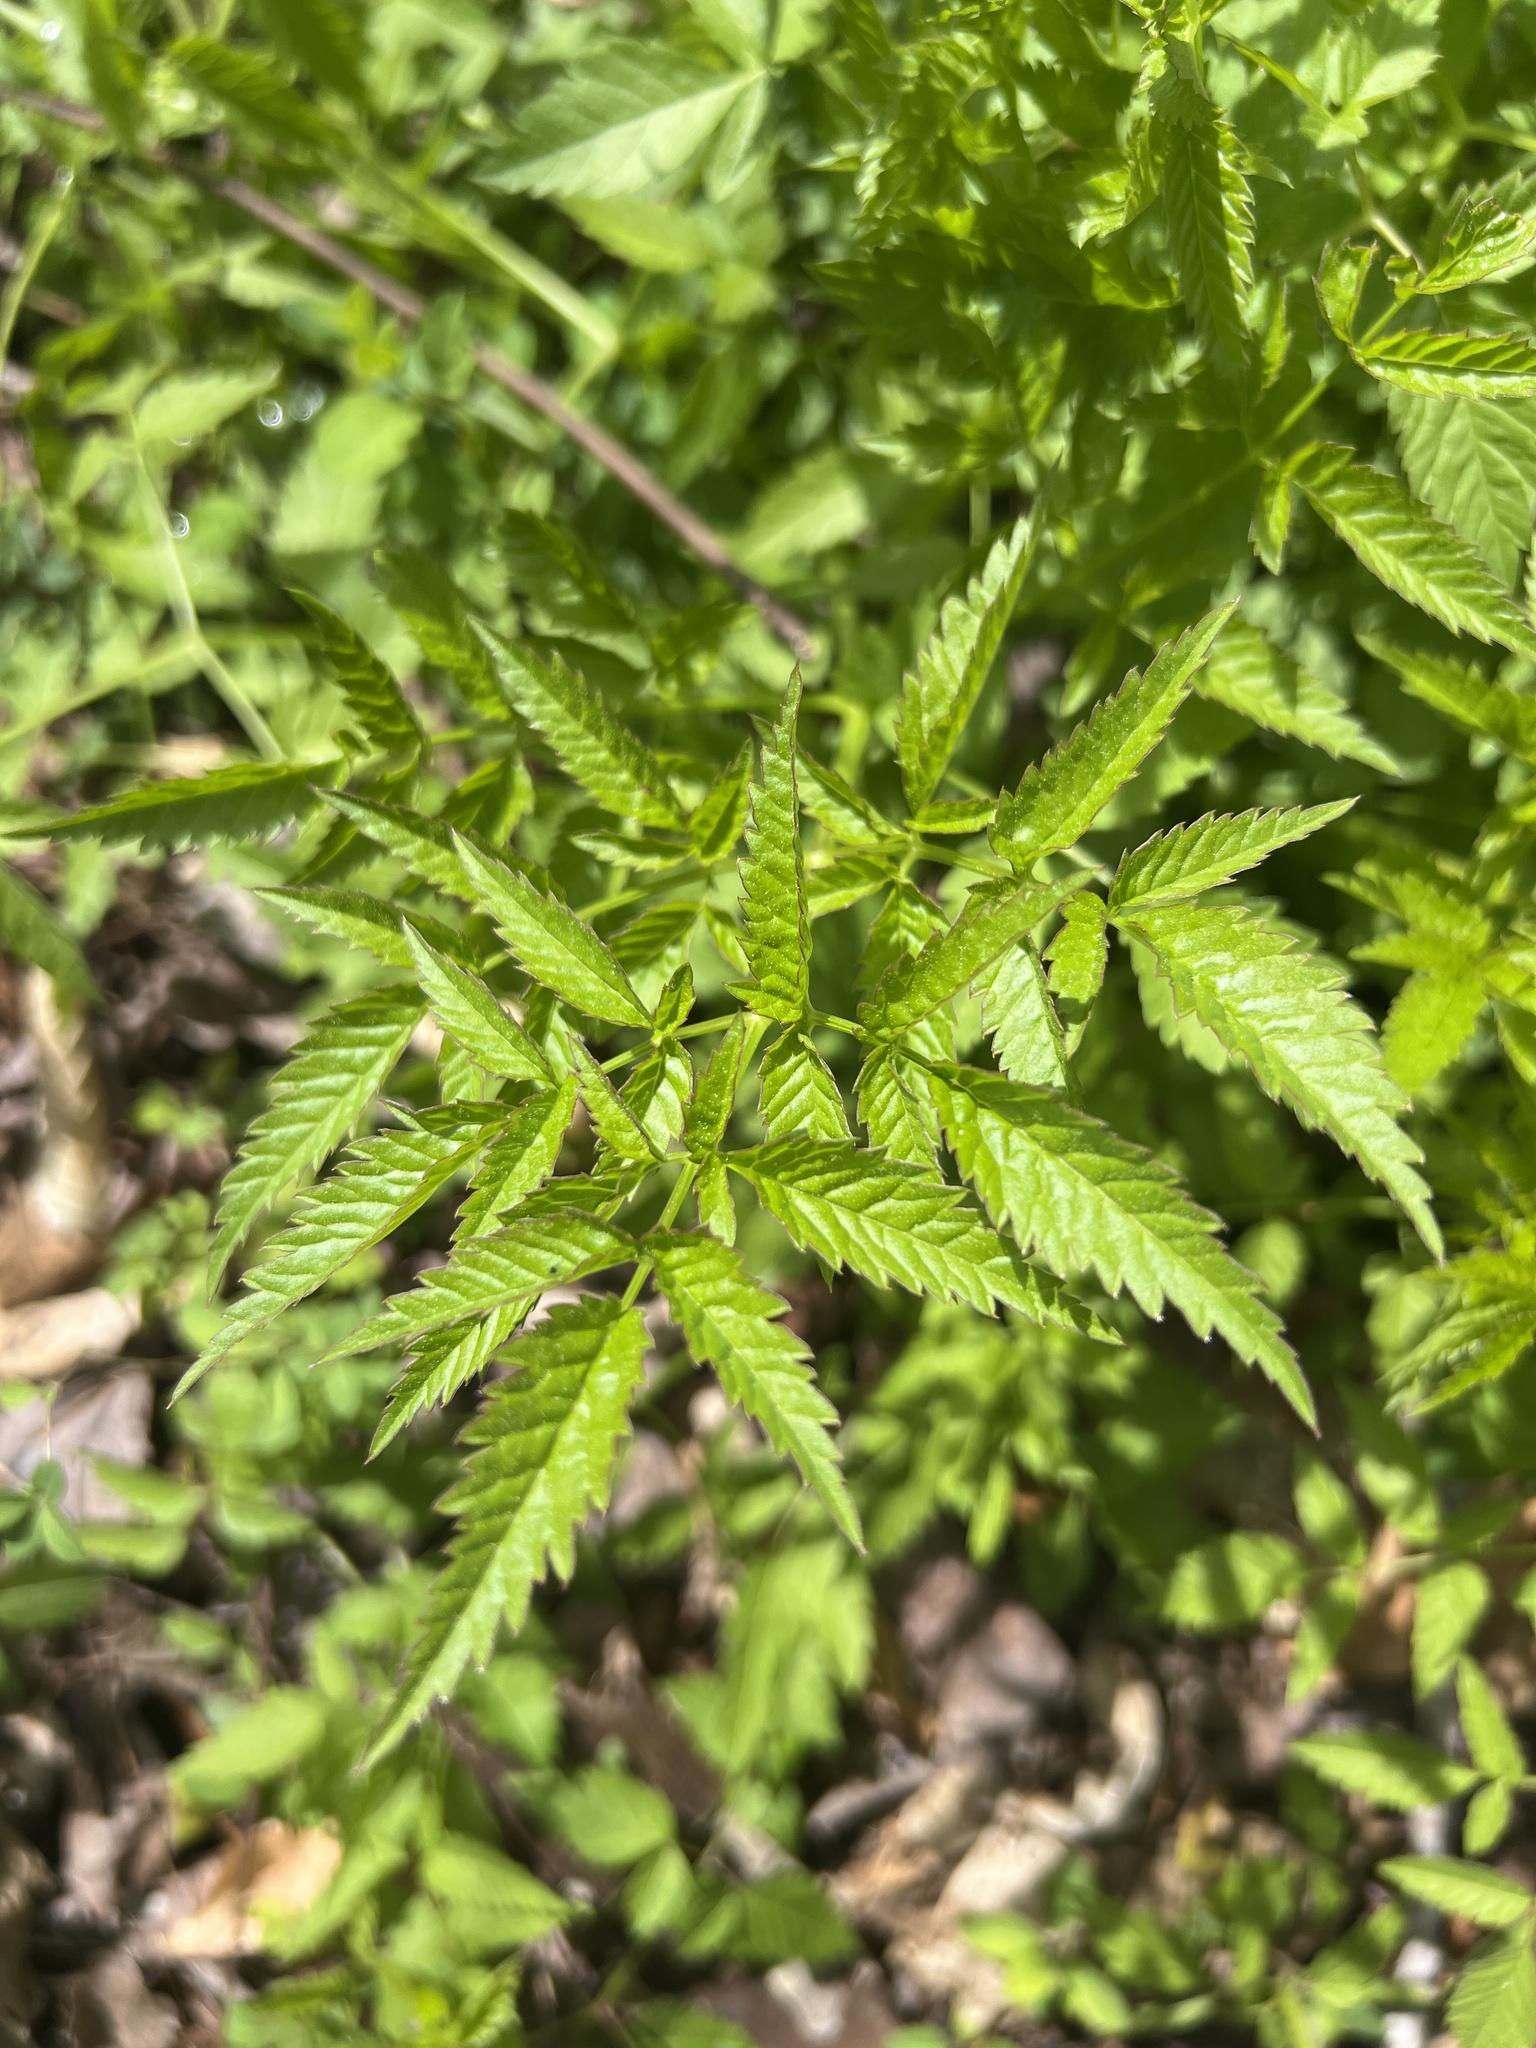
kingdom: Plantae
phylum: Tracheophyta
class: Magnoliopsida
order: Apiales
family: Apiaceae
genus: Cicuta
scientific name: Cicuta maculata
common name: Spotted cowbane
